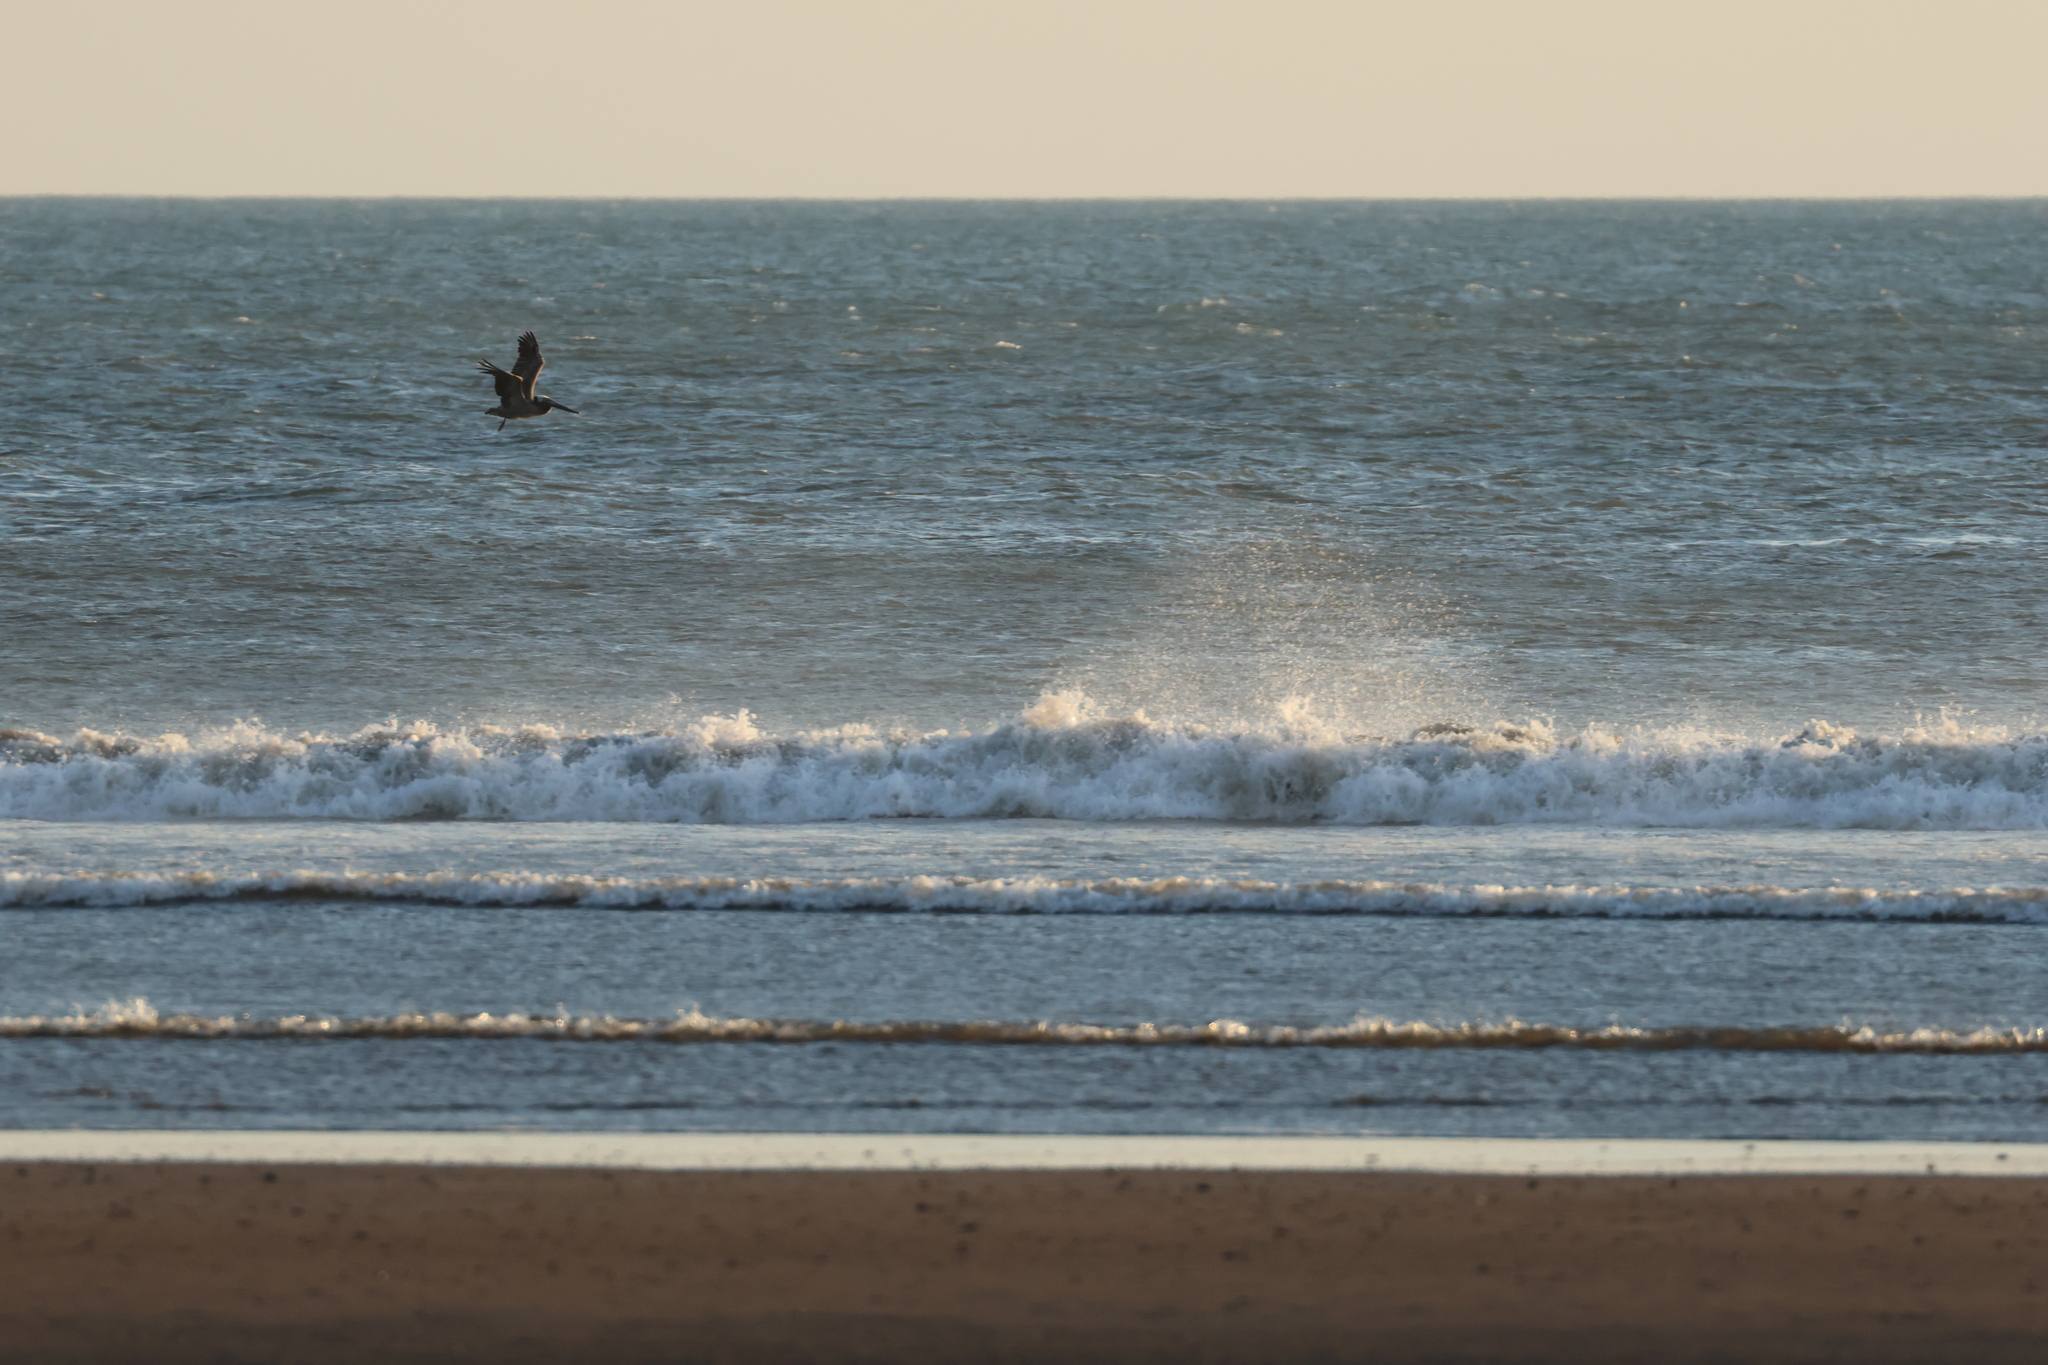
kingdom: Animalia
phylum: Chordata
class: Aves
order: Pelecaniformes
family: Pelecanidae
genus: Pelecanus
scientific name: Pelecanus occidentalis
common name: Brown pelican
